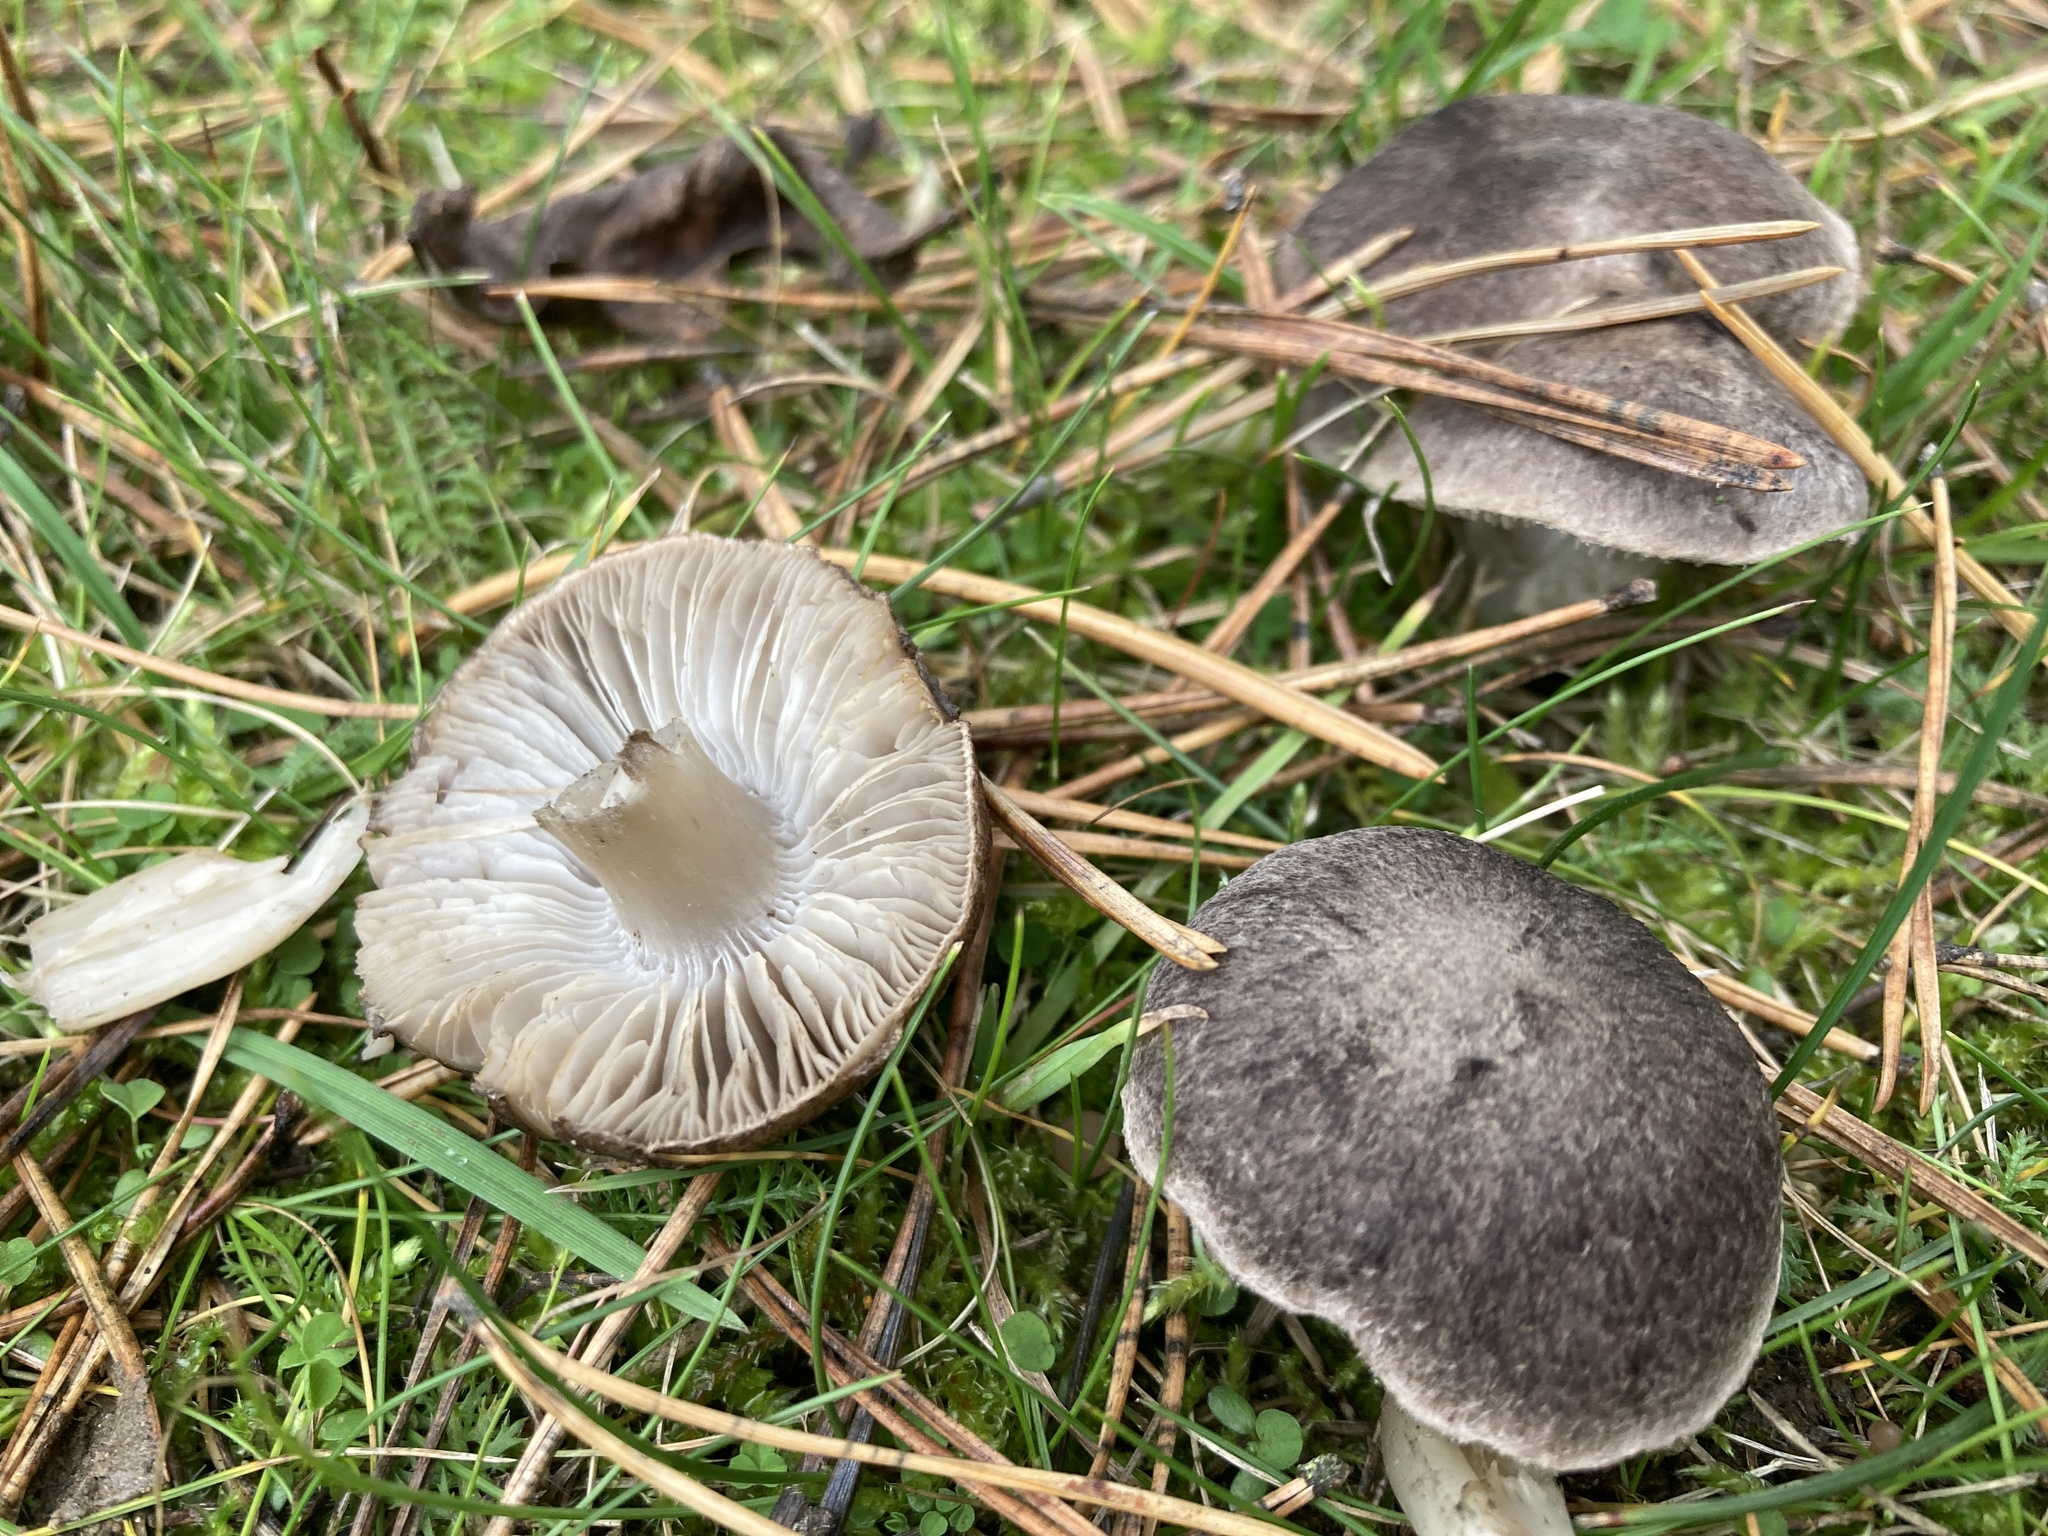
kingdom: Fungi
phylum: Basidiomycota
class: Agaricomycetes
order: Agaricales
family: Tricholomataceae
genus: Tricholoma
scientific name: Tricholoma terreum
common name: Grey knight
